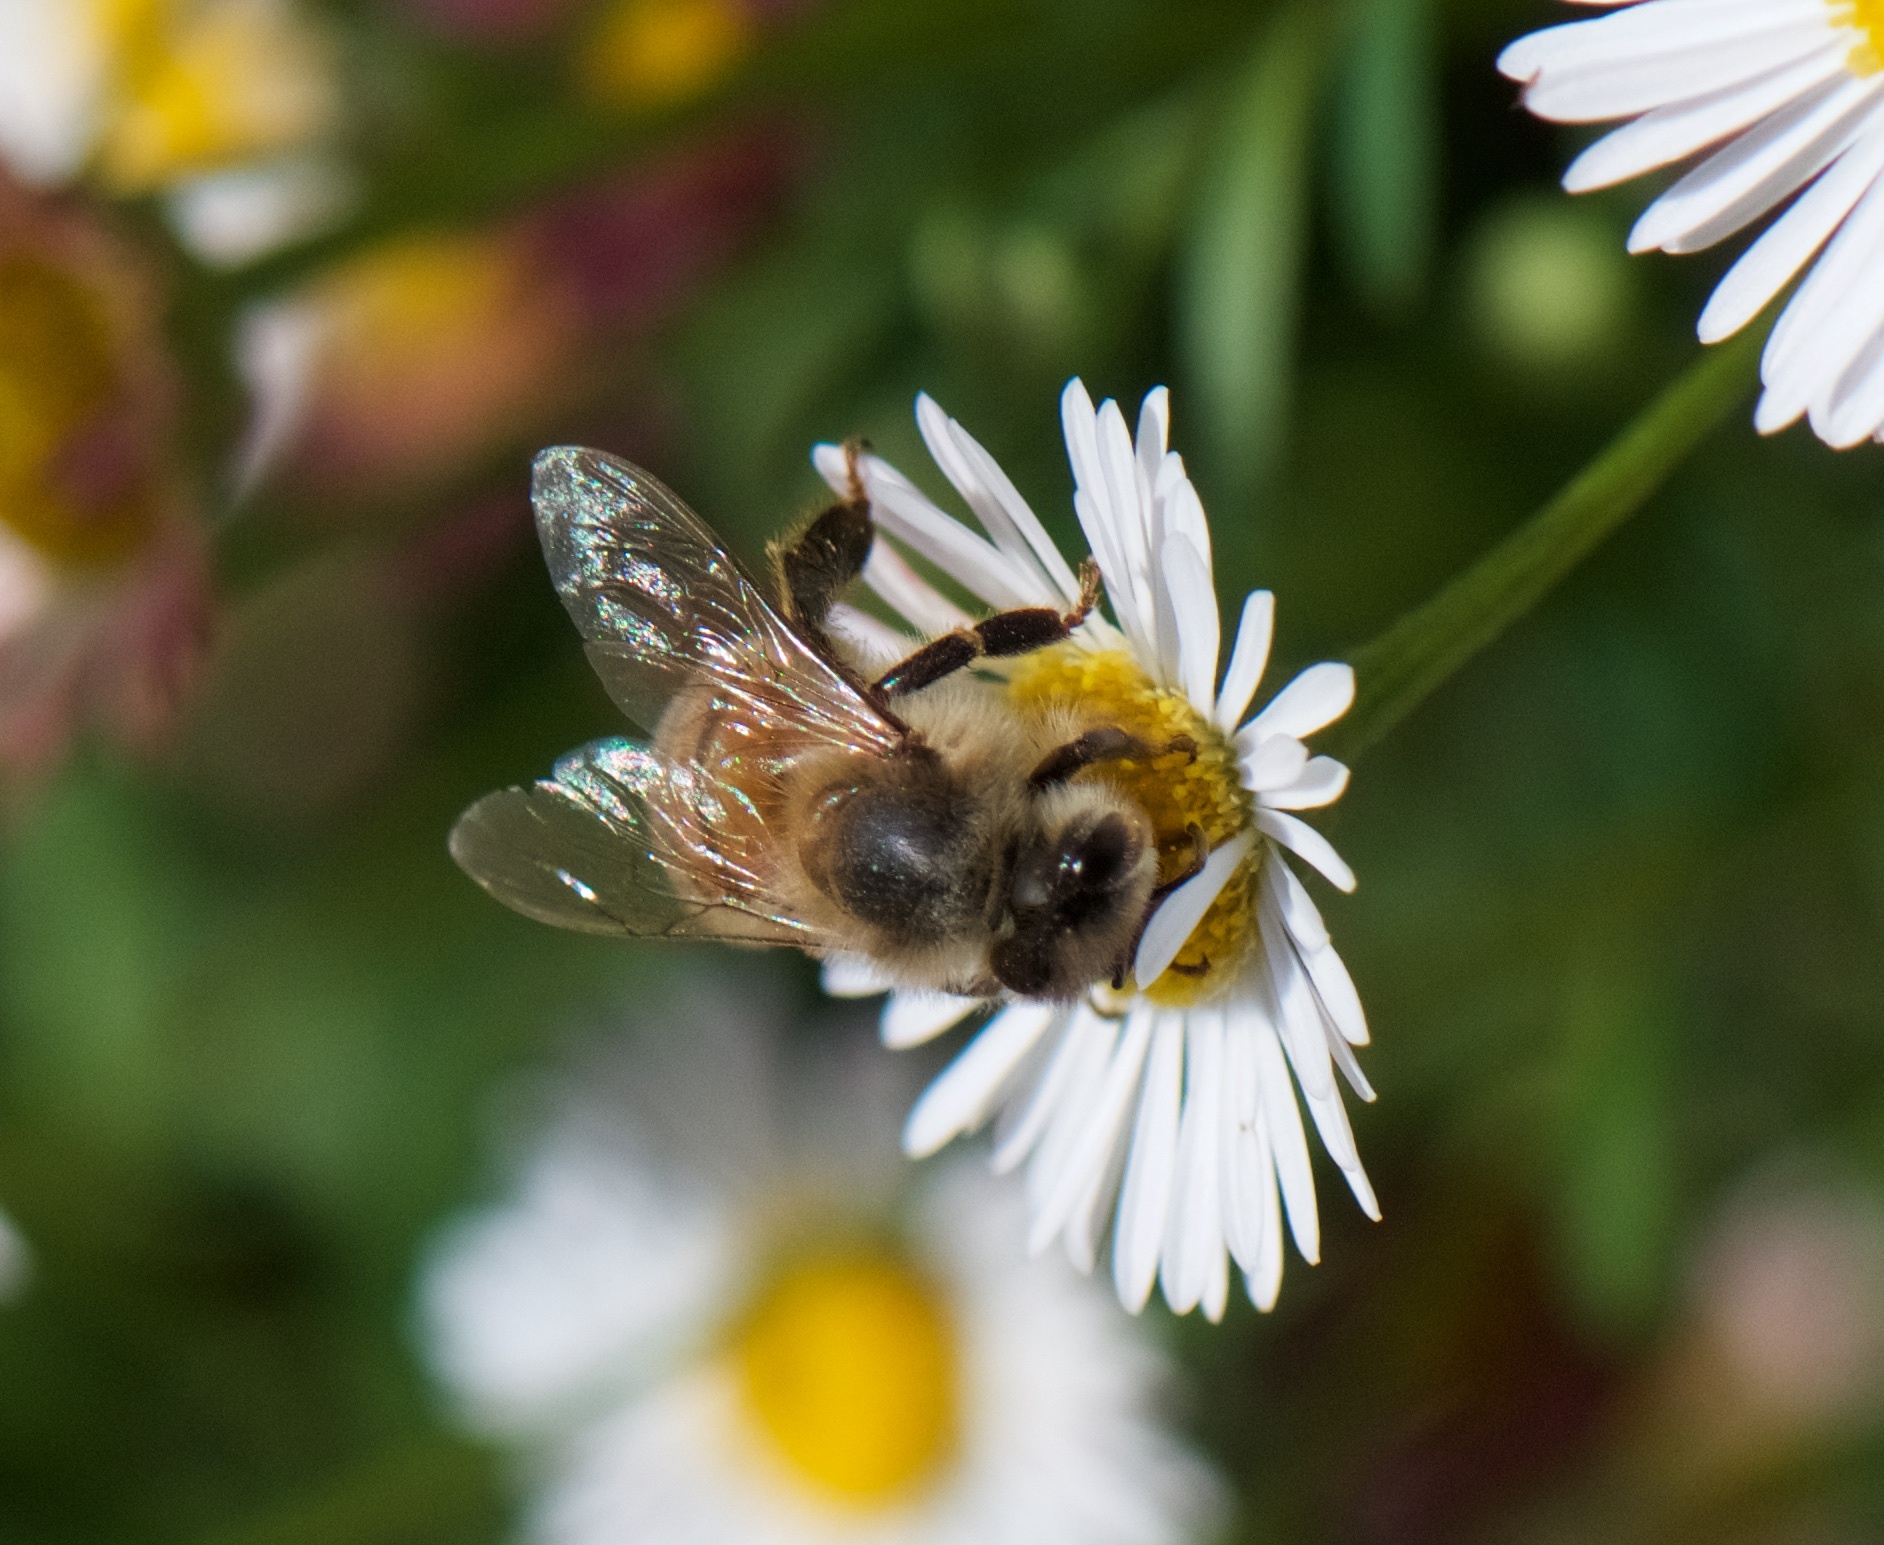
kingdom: Animalia
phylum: Arthropoda
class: Insecta
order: Hymenoptera
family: Apidae
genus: Apis
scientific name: Apis mellifera
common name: Honey bee
